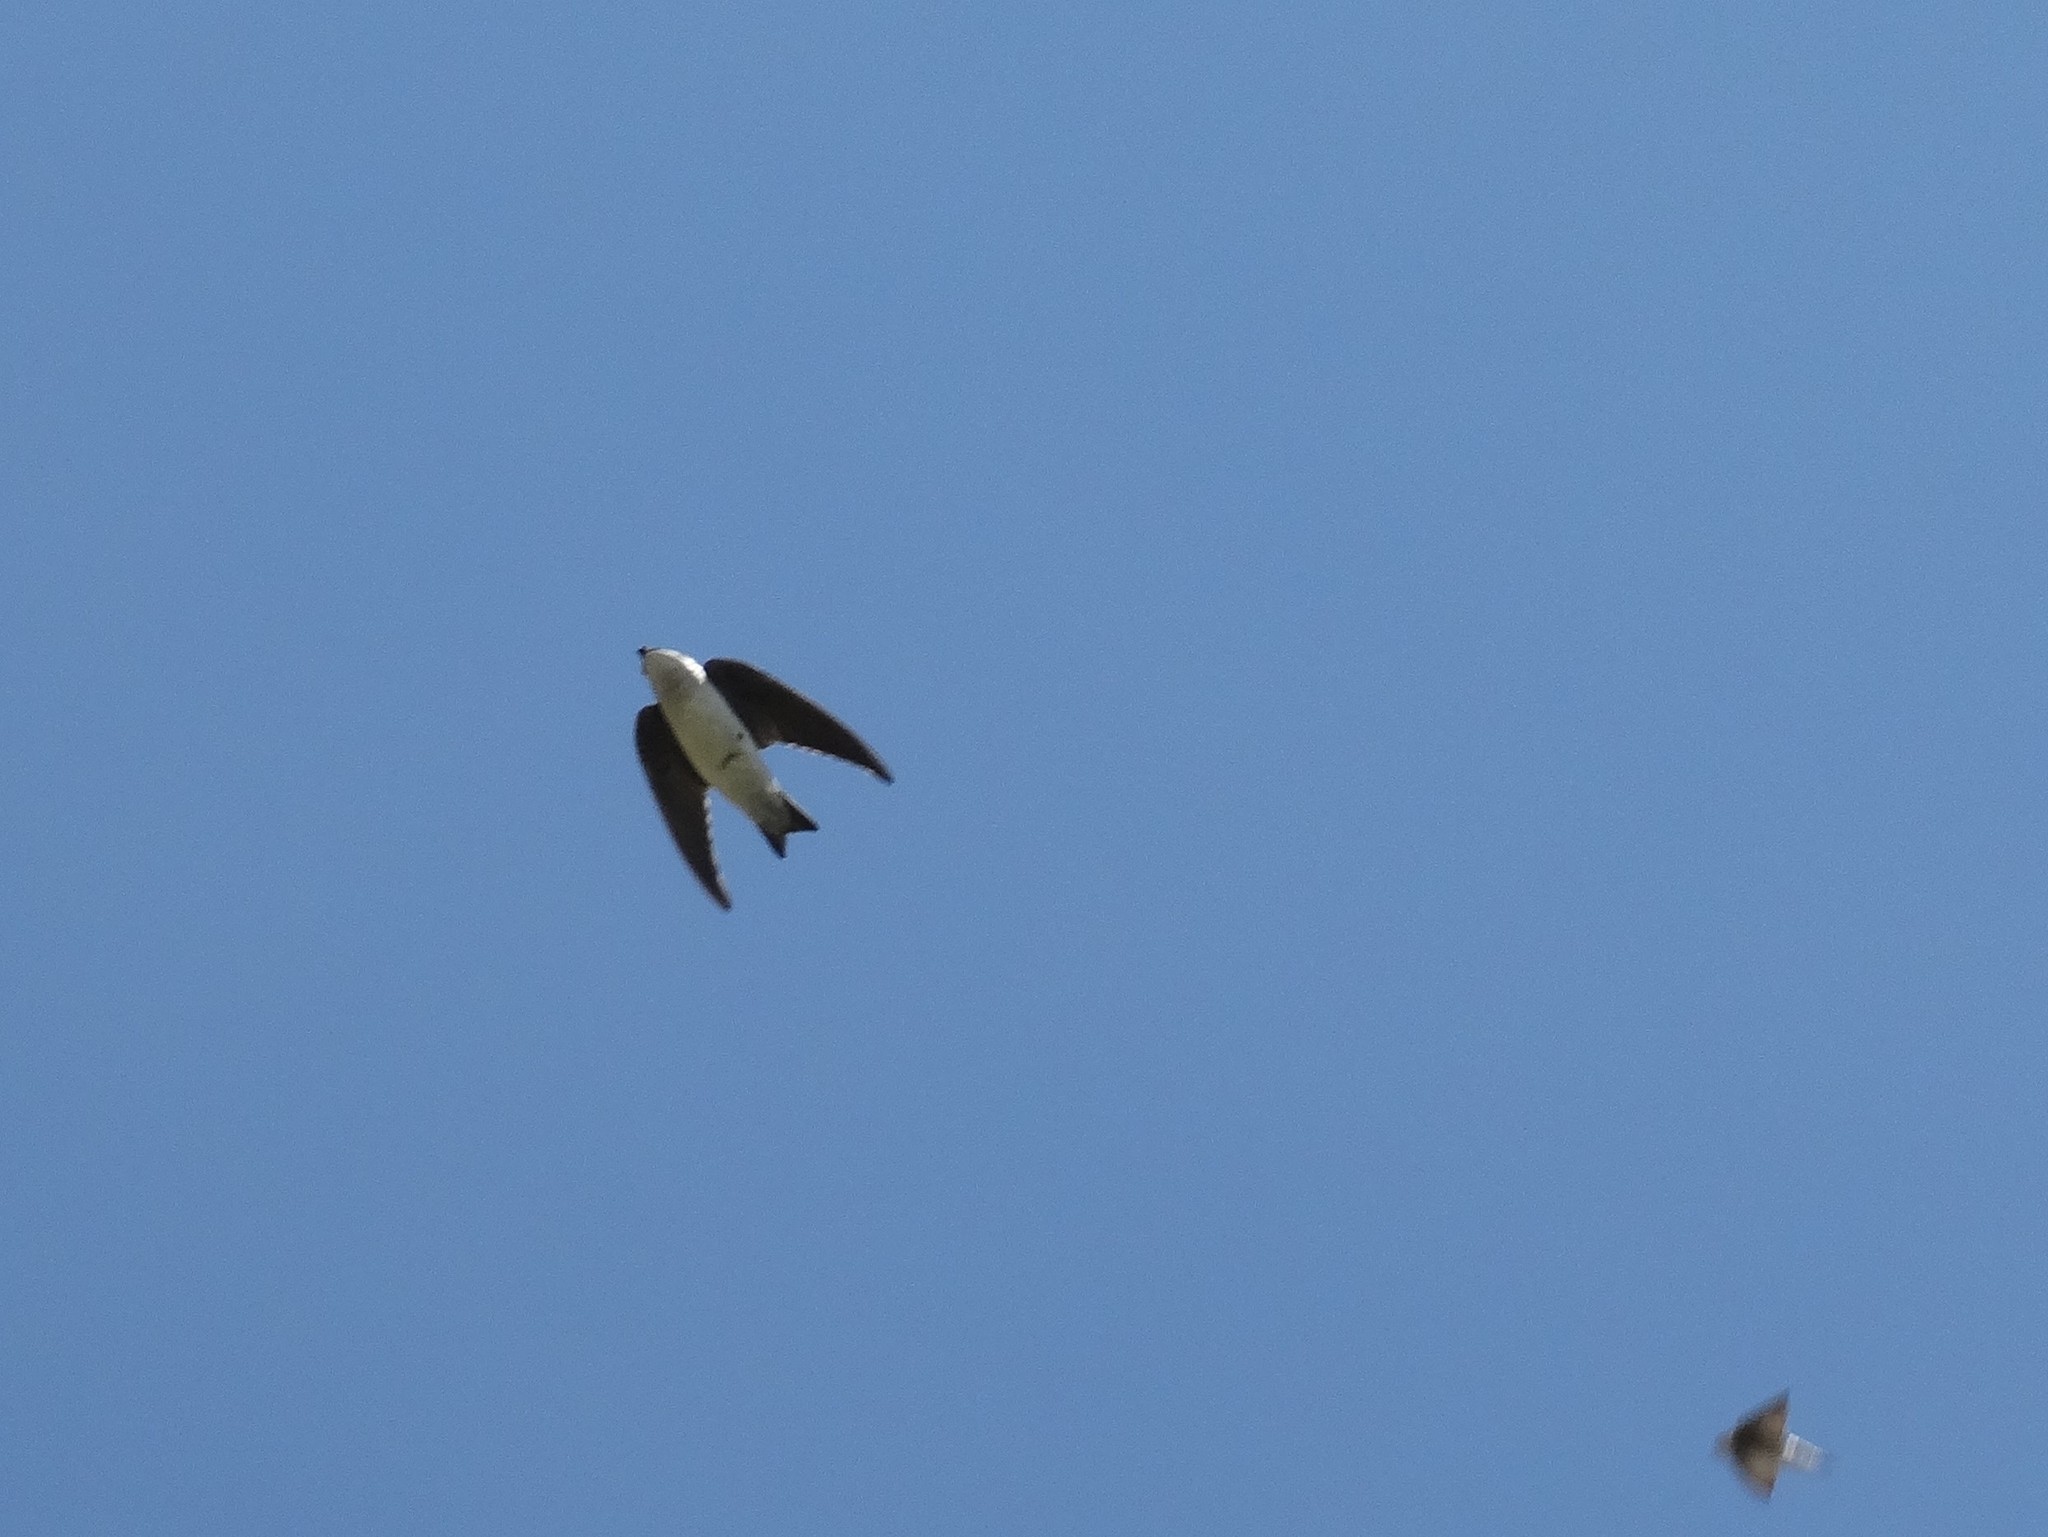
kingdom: Animalia
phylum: Chordata
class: Aves
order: Apodiformes
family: Apodidae
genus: Chaetura
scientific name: Chaetura vauxi
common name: Vaux's swift
